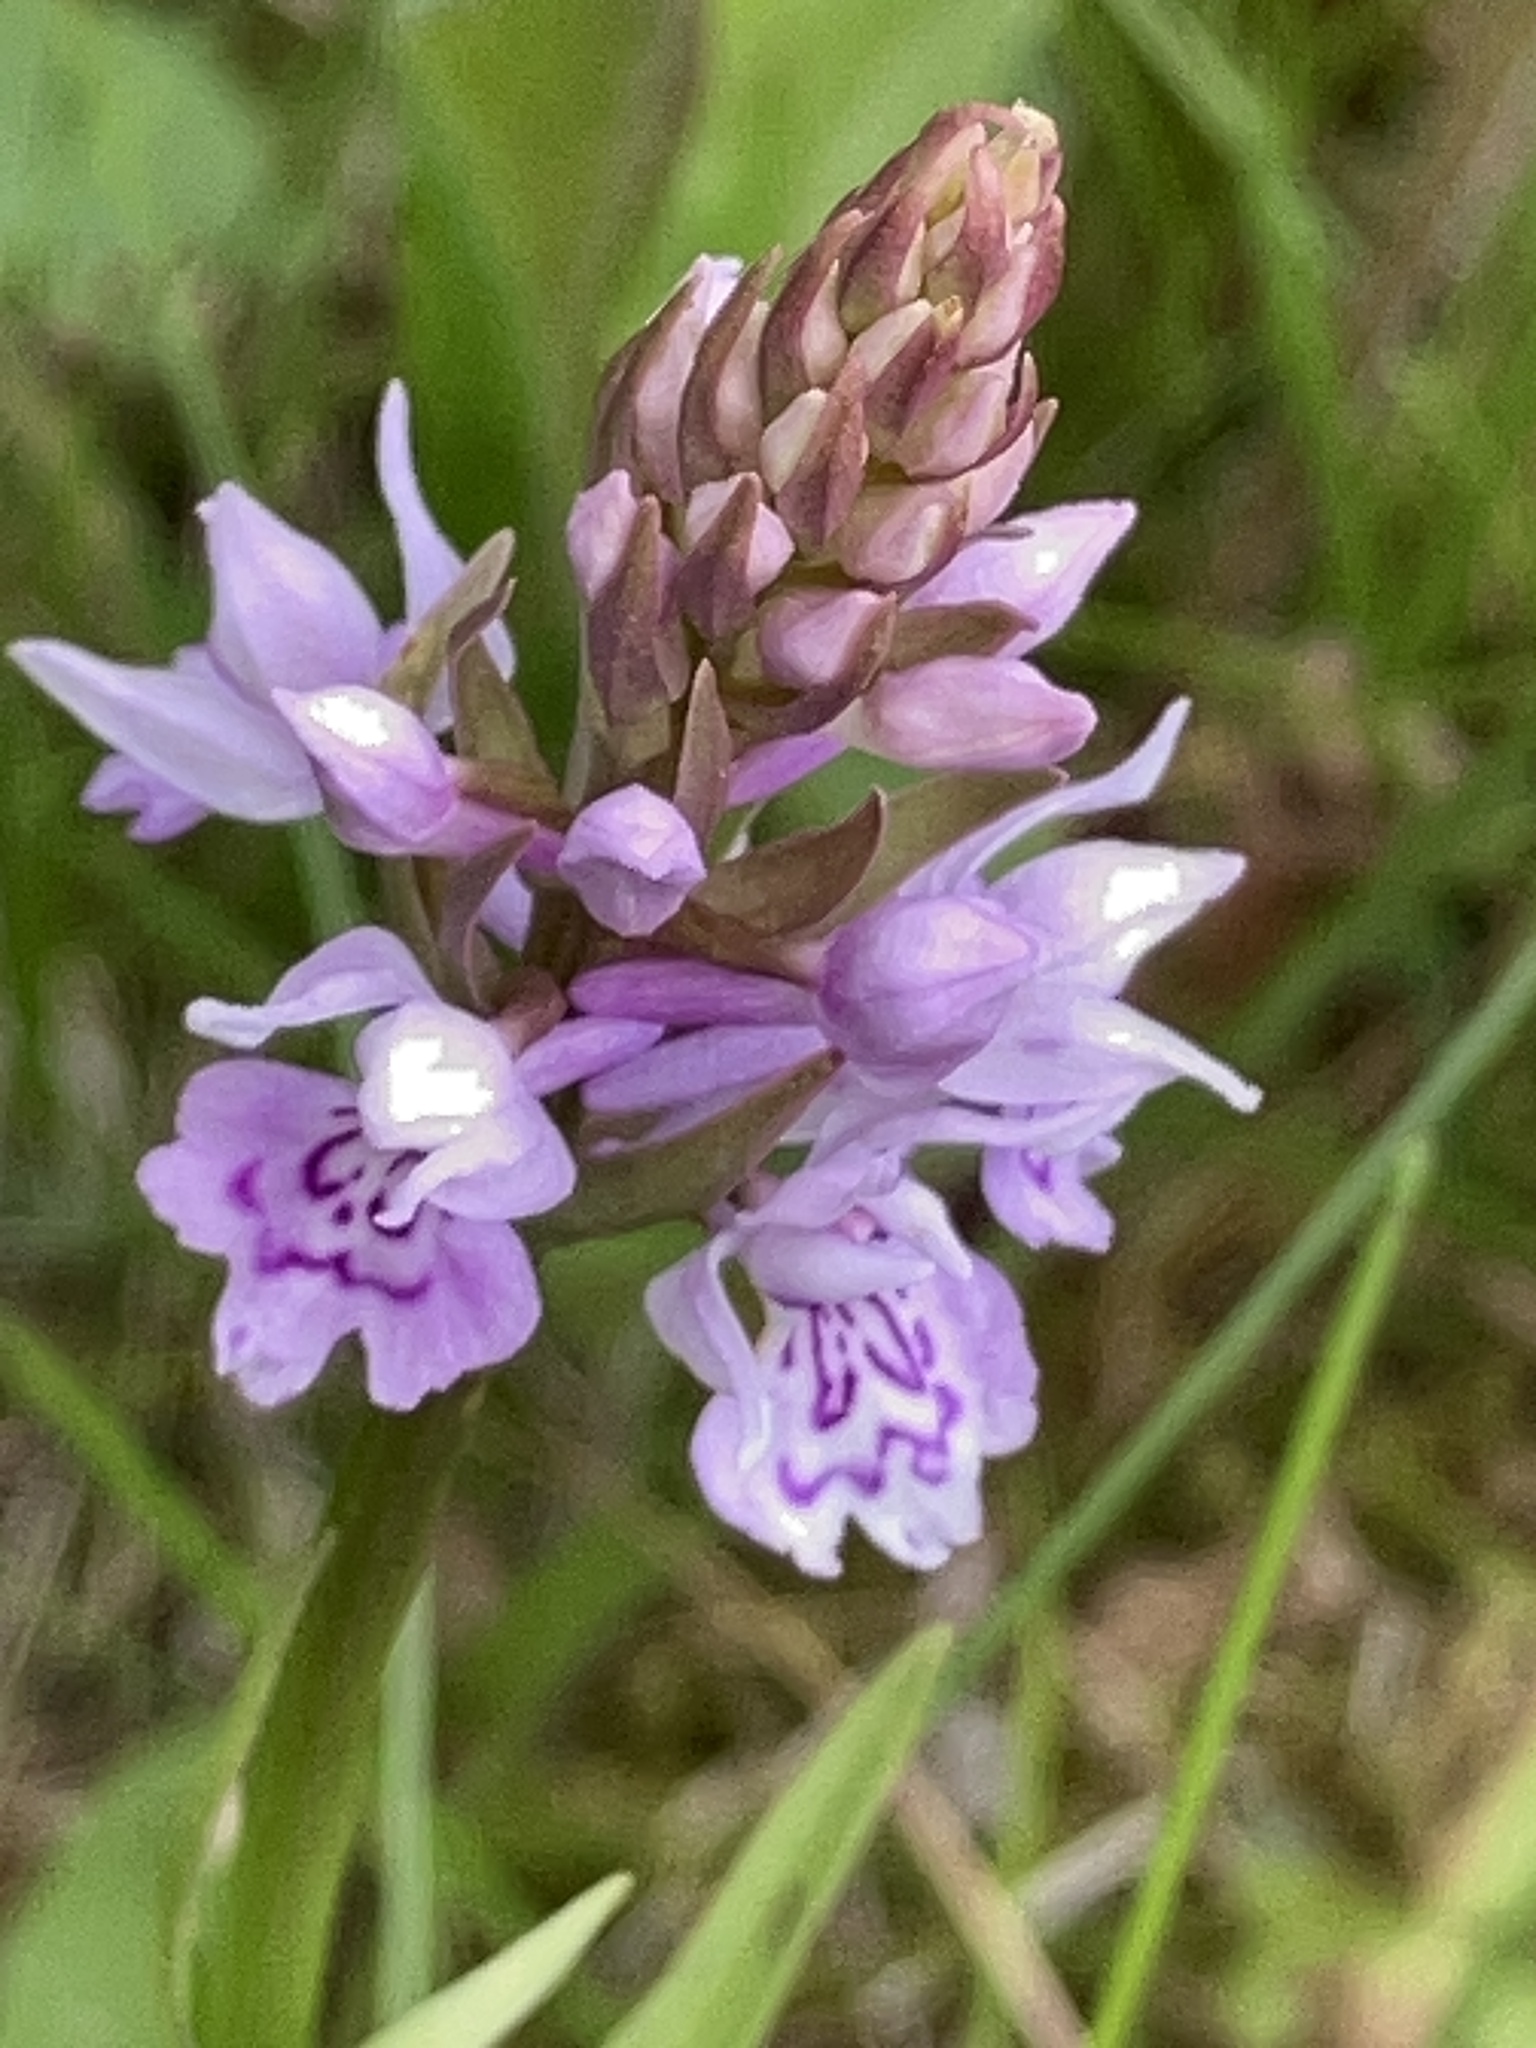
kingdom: Plantae
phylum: Tracheophyta
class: Liliopsida
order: Asparagales
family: Orchidaceae
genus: Dactylorhiza
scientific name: Dactylorhiza maculata
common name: Heath spotted-orchid
